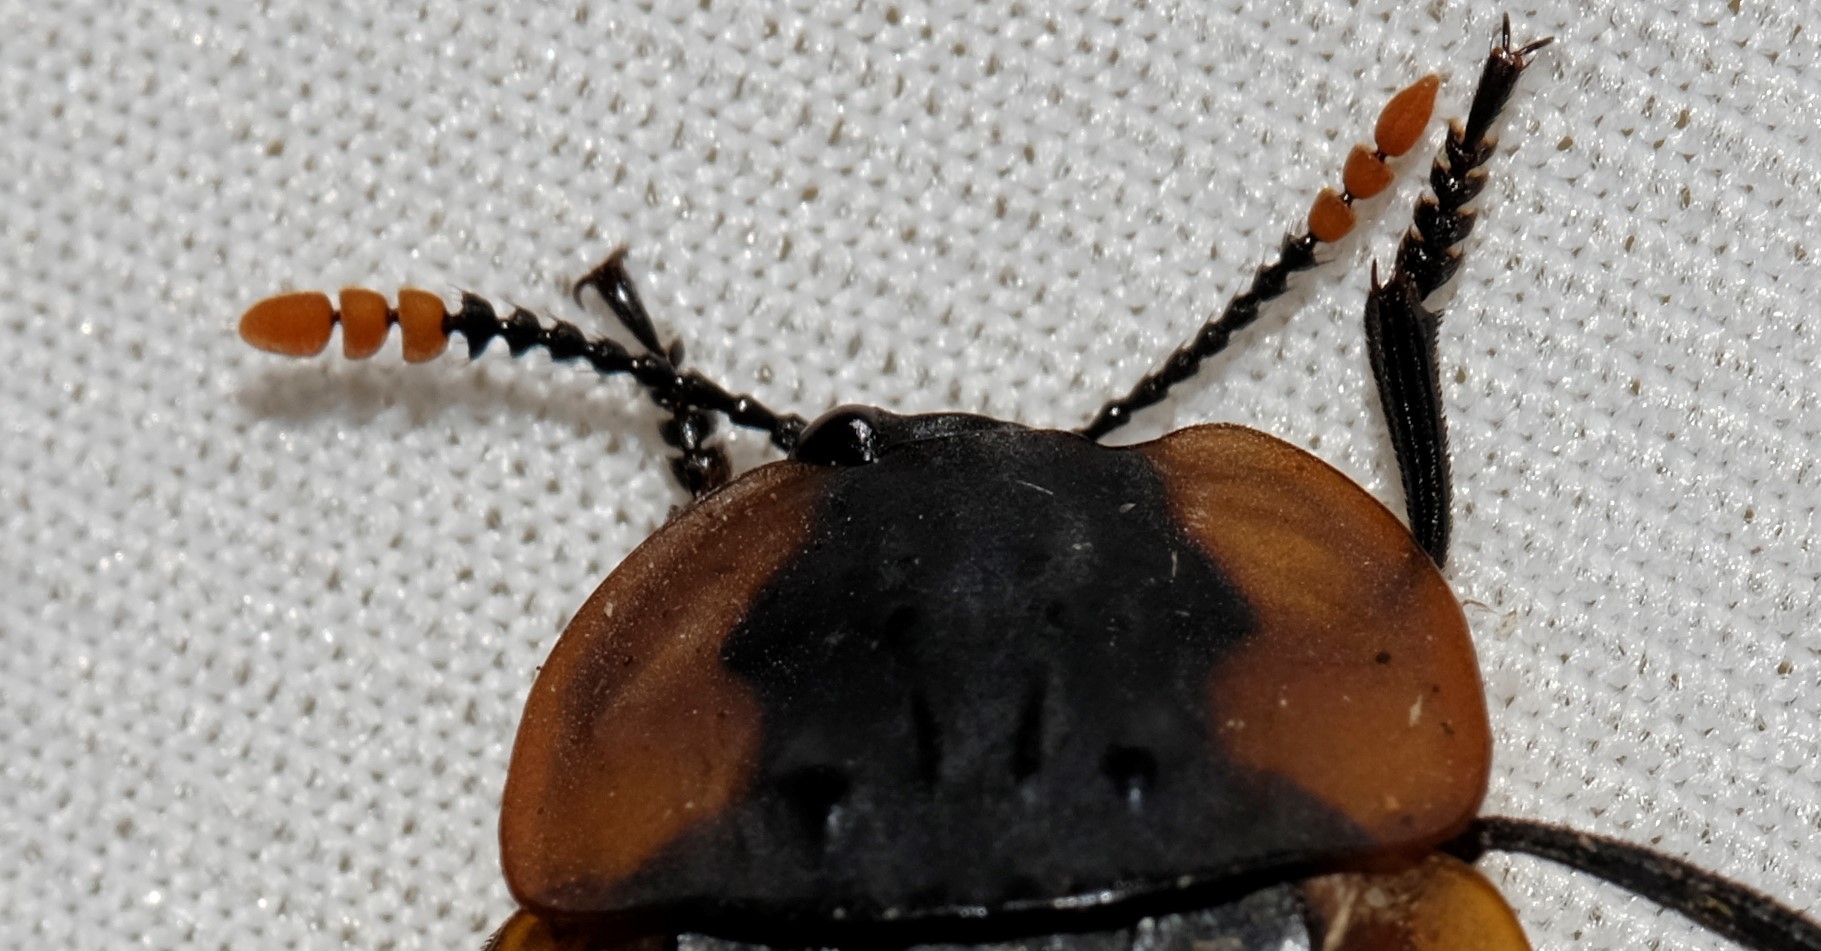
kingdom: Animalia
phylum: Arthropoda
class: Insecta
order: Coleoptera
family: Staphylinidae
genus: Ptomaphila
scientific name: Ptomaphila lacrymosa
